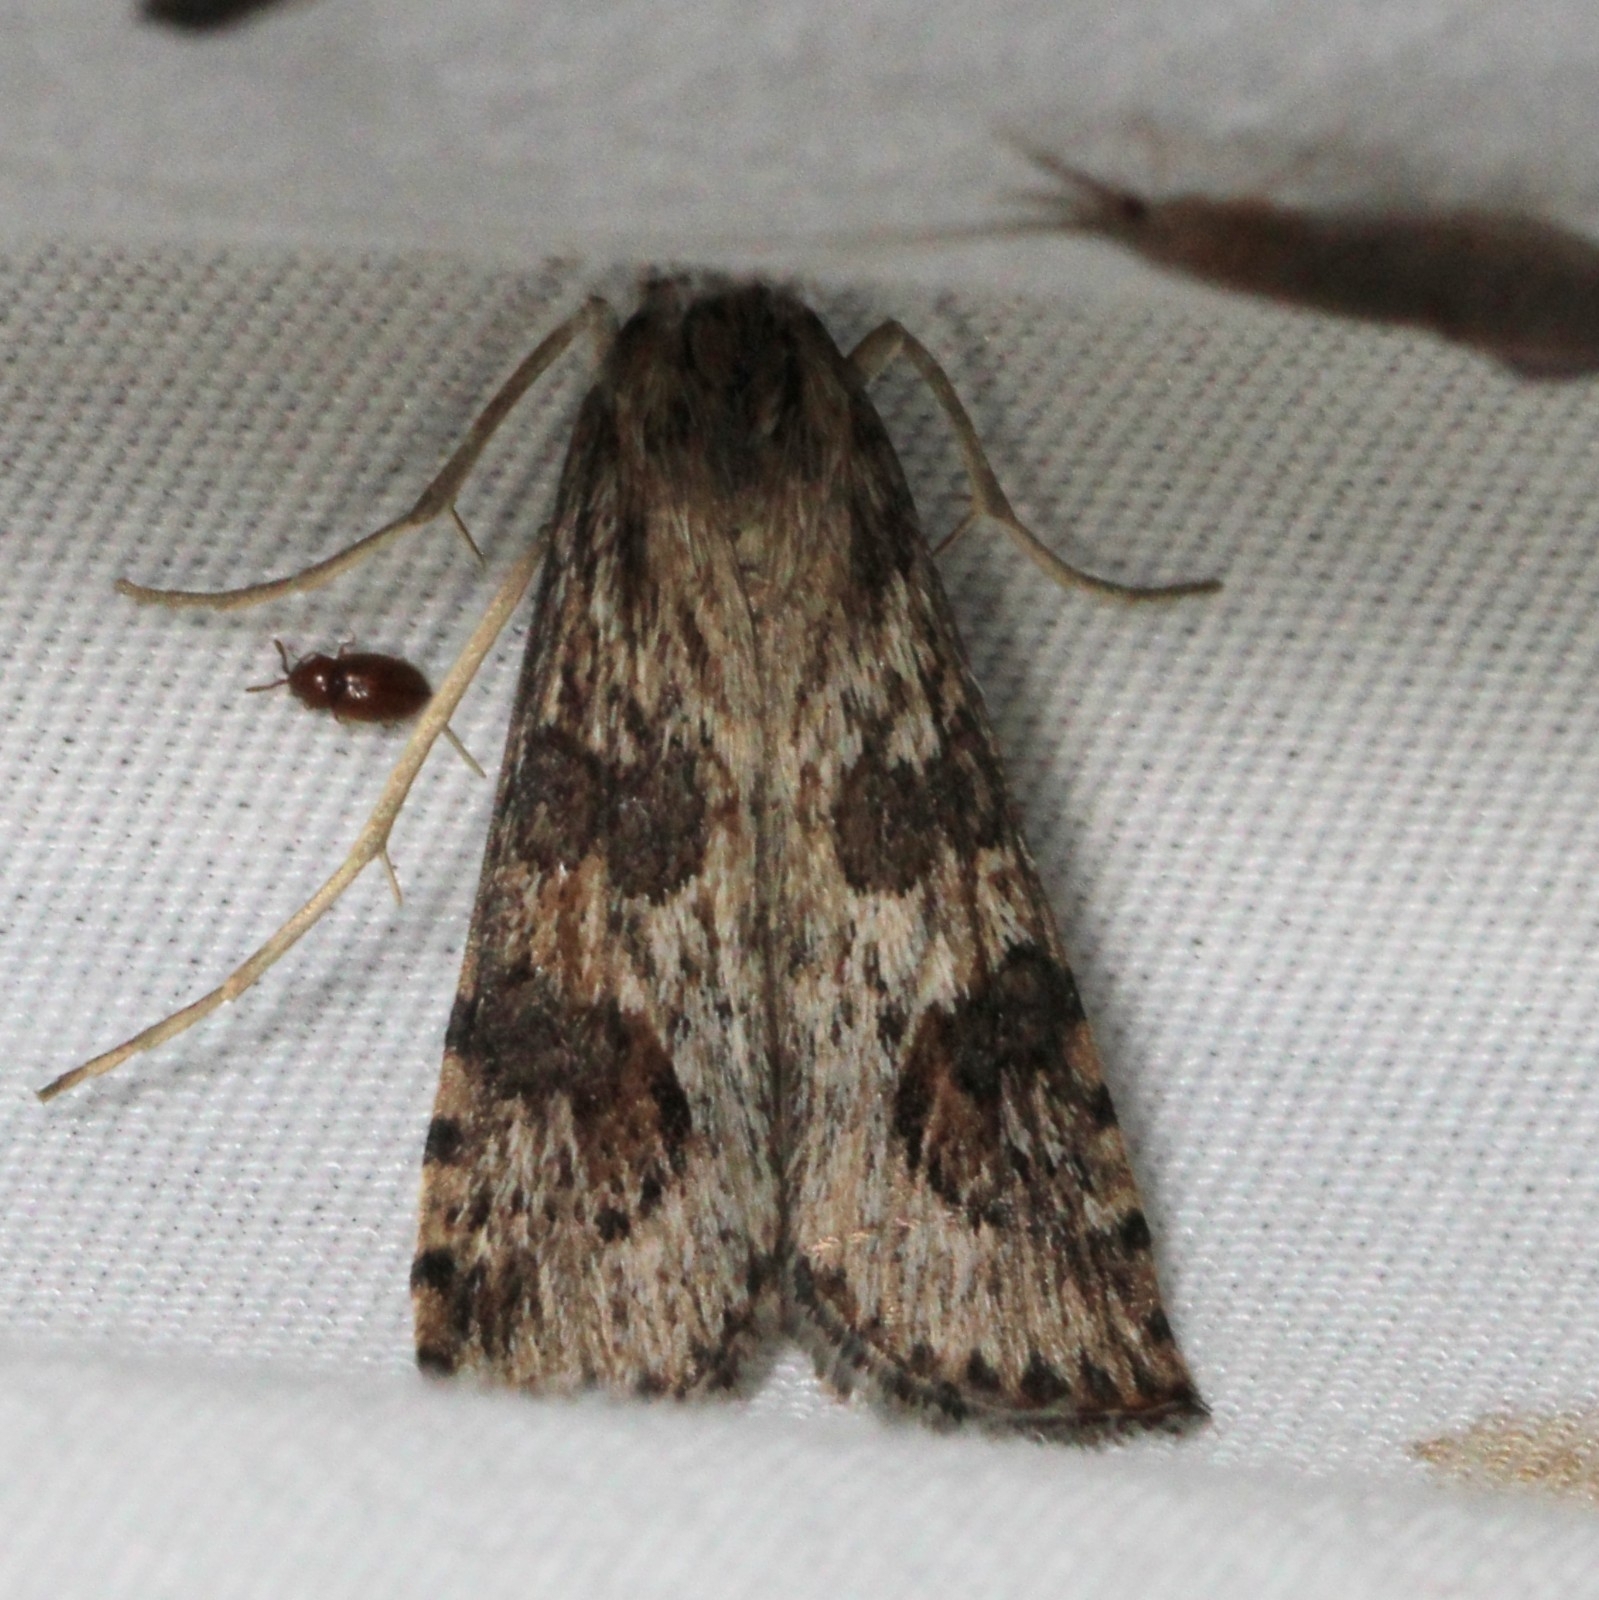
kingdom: Animalia
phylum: Arthropoda
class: Insecta
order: Lepidoptera
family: Crambidae
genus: Nomophila
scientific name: Nomophila nearctica
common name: American rush veneer
